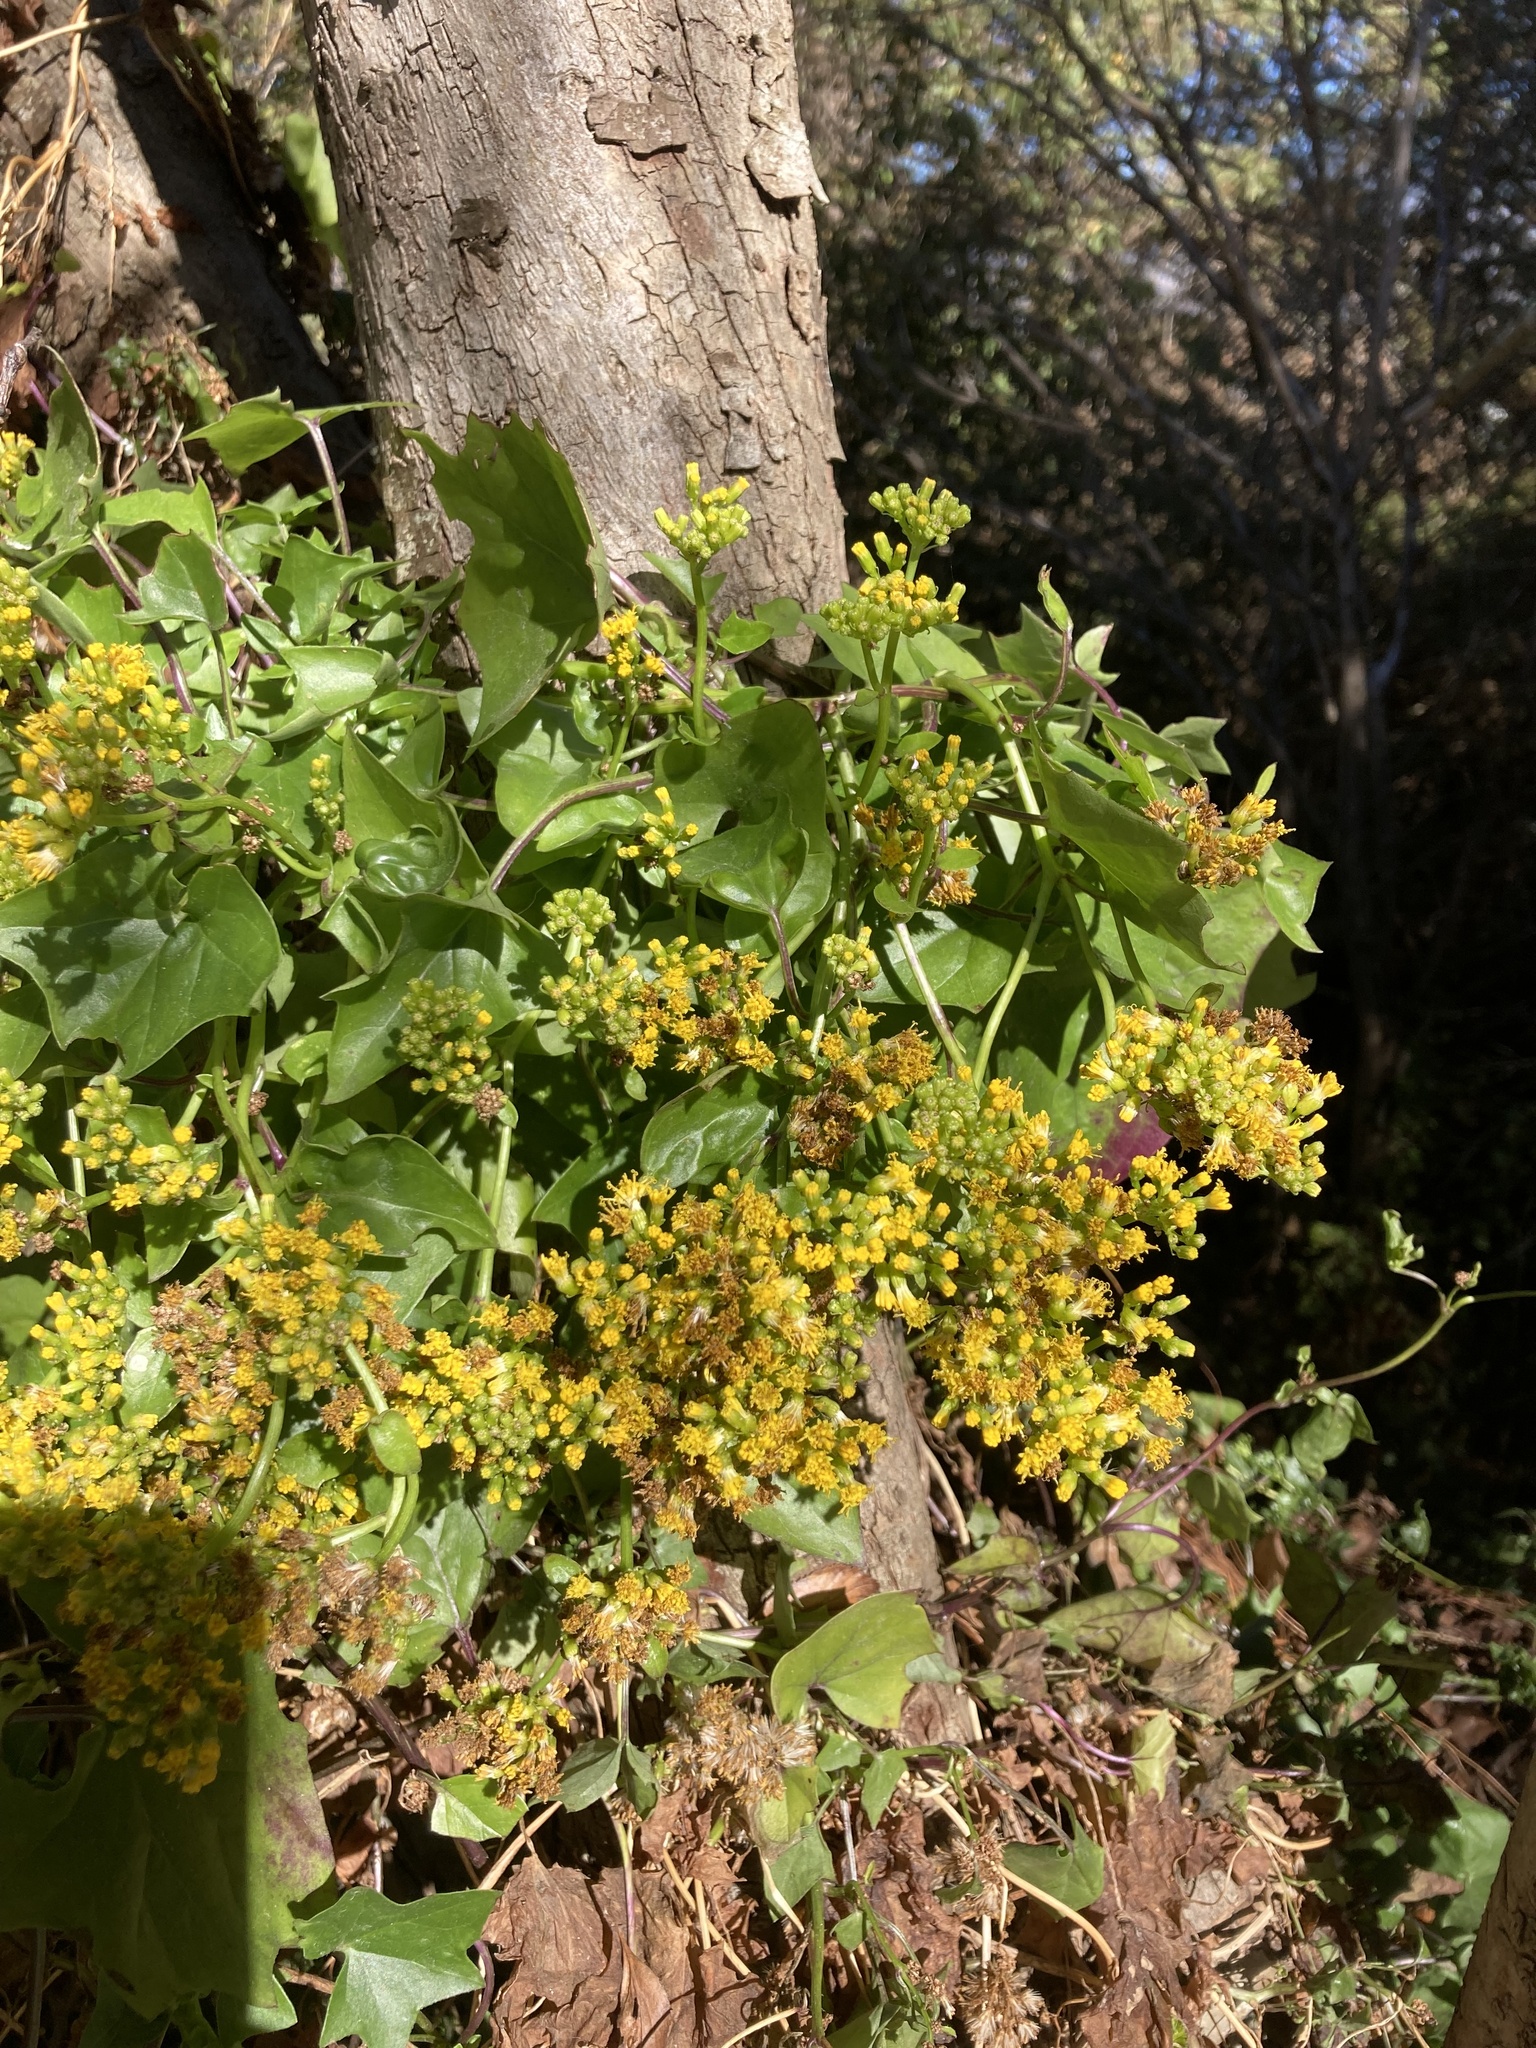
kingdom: Plantae
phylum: Tracheophyta
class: Magnoliopsida
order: Asterales
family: Asteraceae
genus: Delairea
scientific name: Delairea odorata
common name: Cape-ivy
